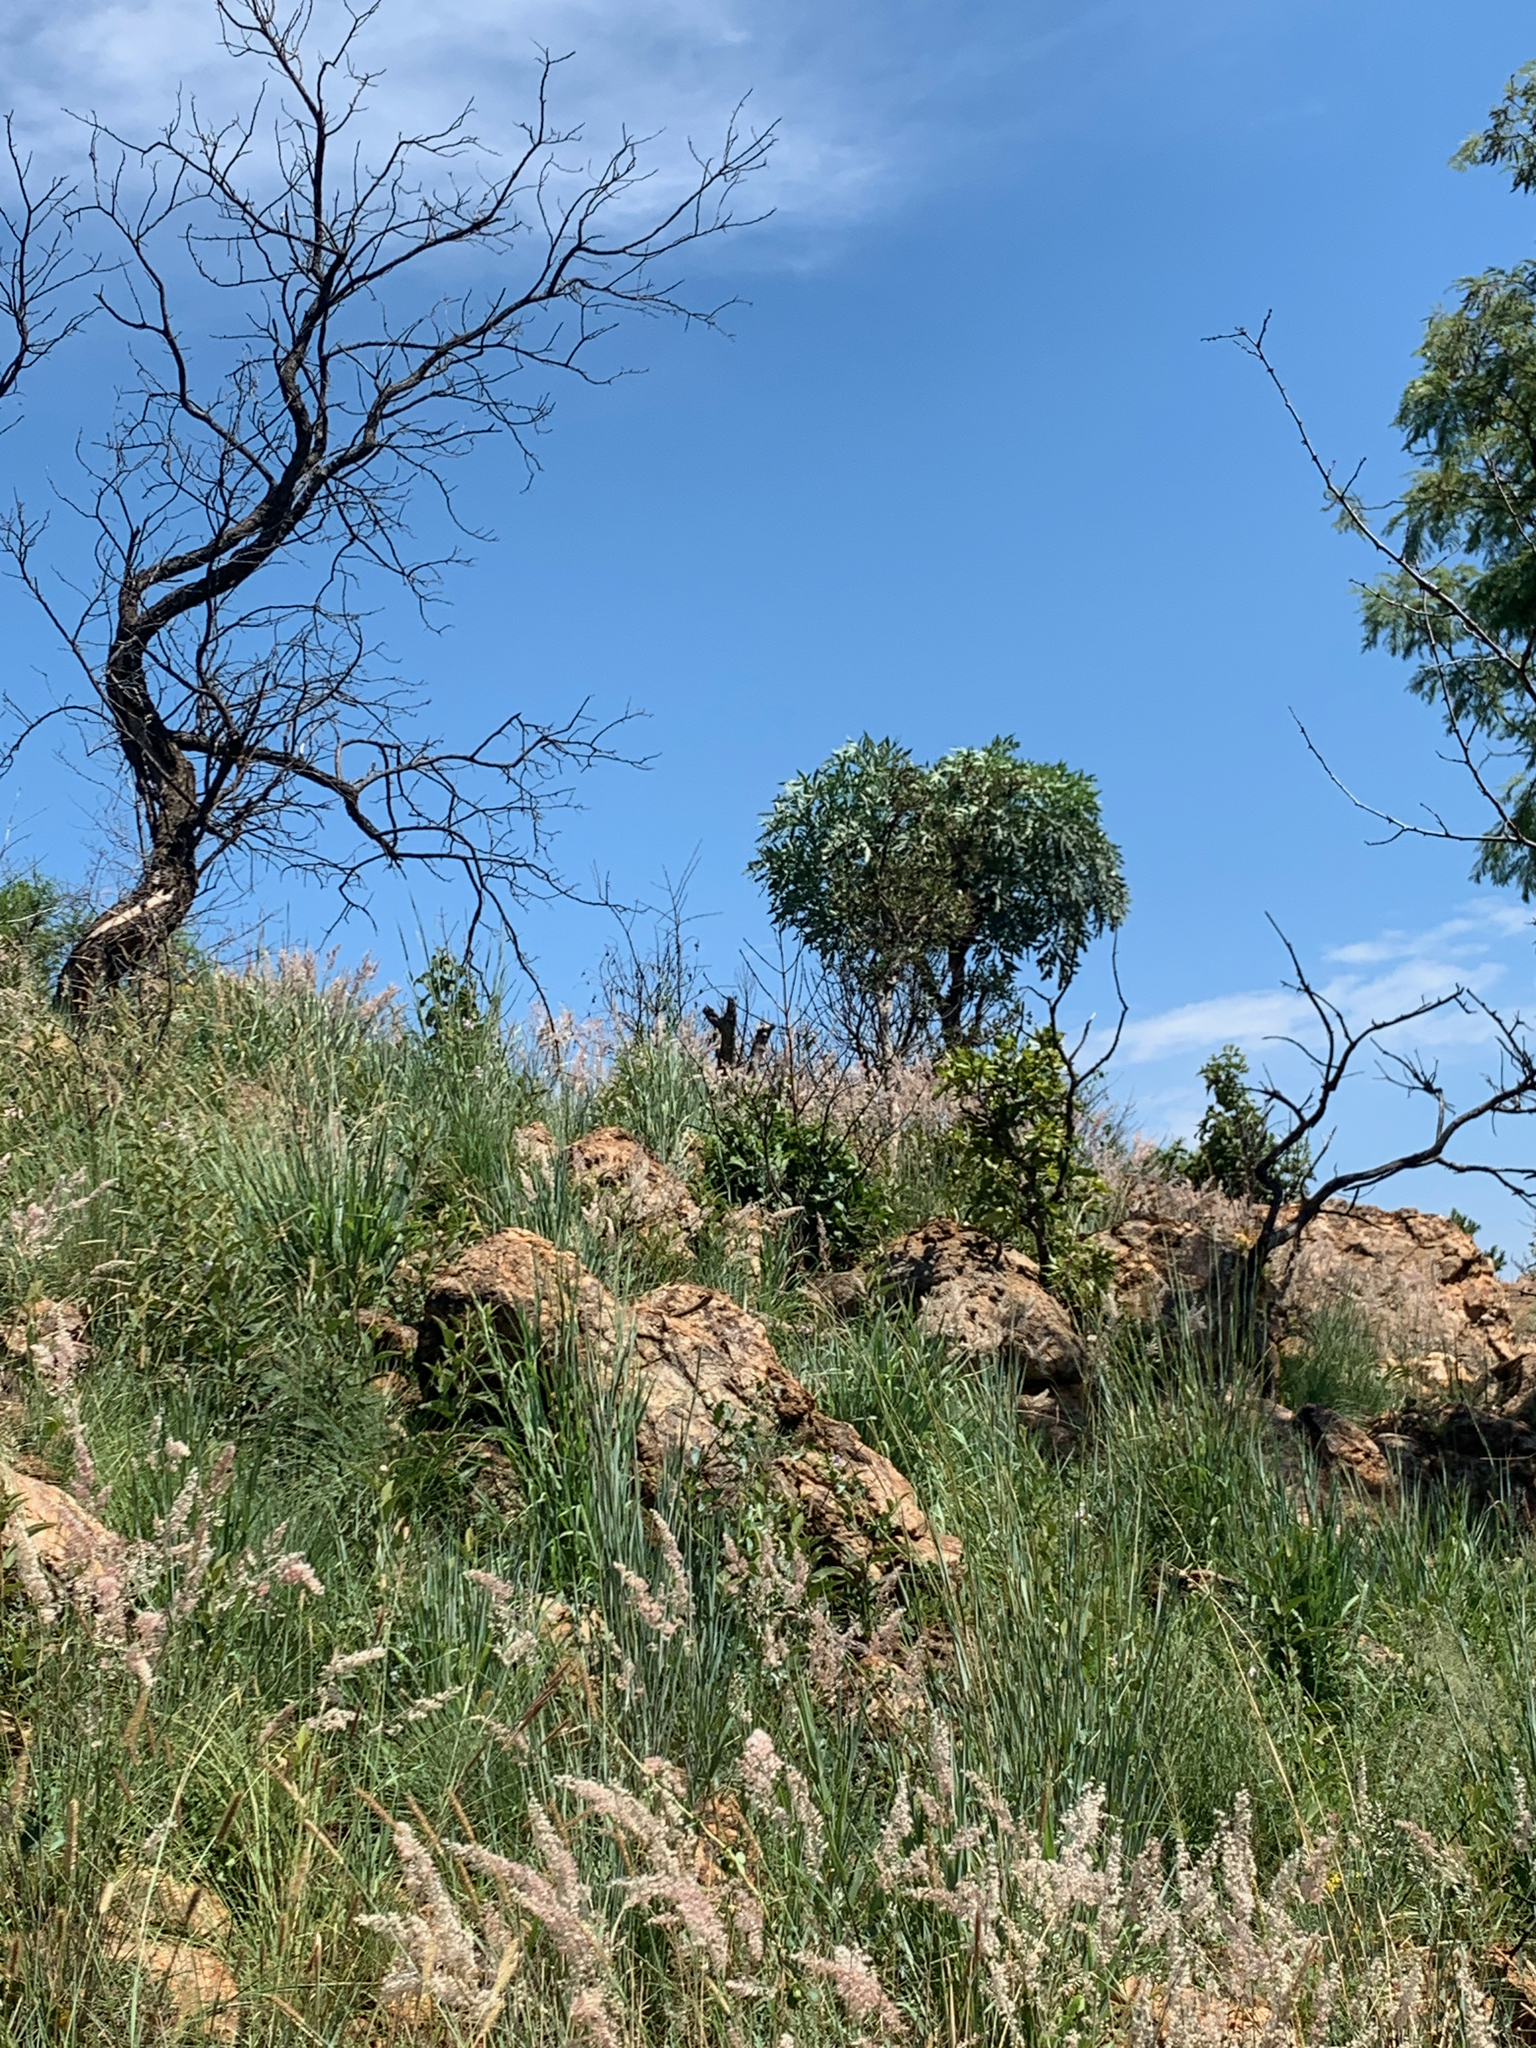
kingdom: Plantae
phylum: Tracheophyta
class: Magnoliopsida
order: Apiales
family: Araliaceae
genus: Cussonia
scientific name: Cussonia paniculata
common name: Cabbagetree
